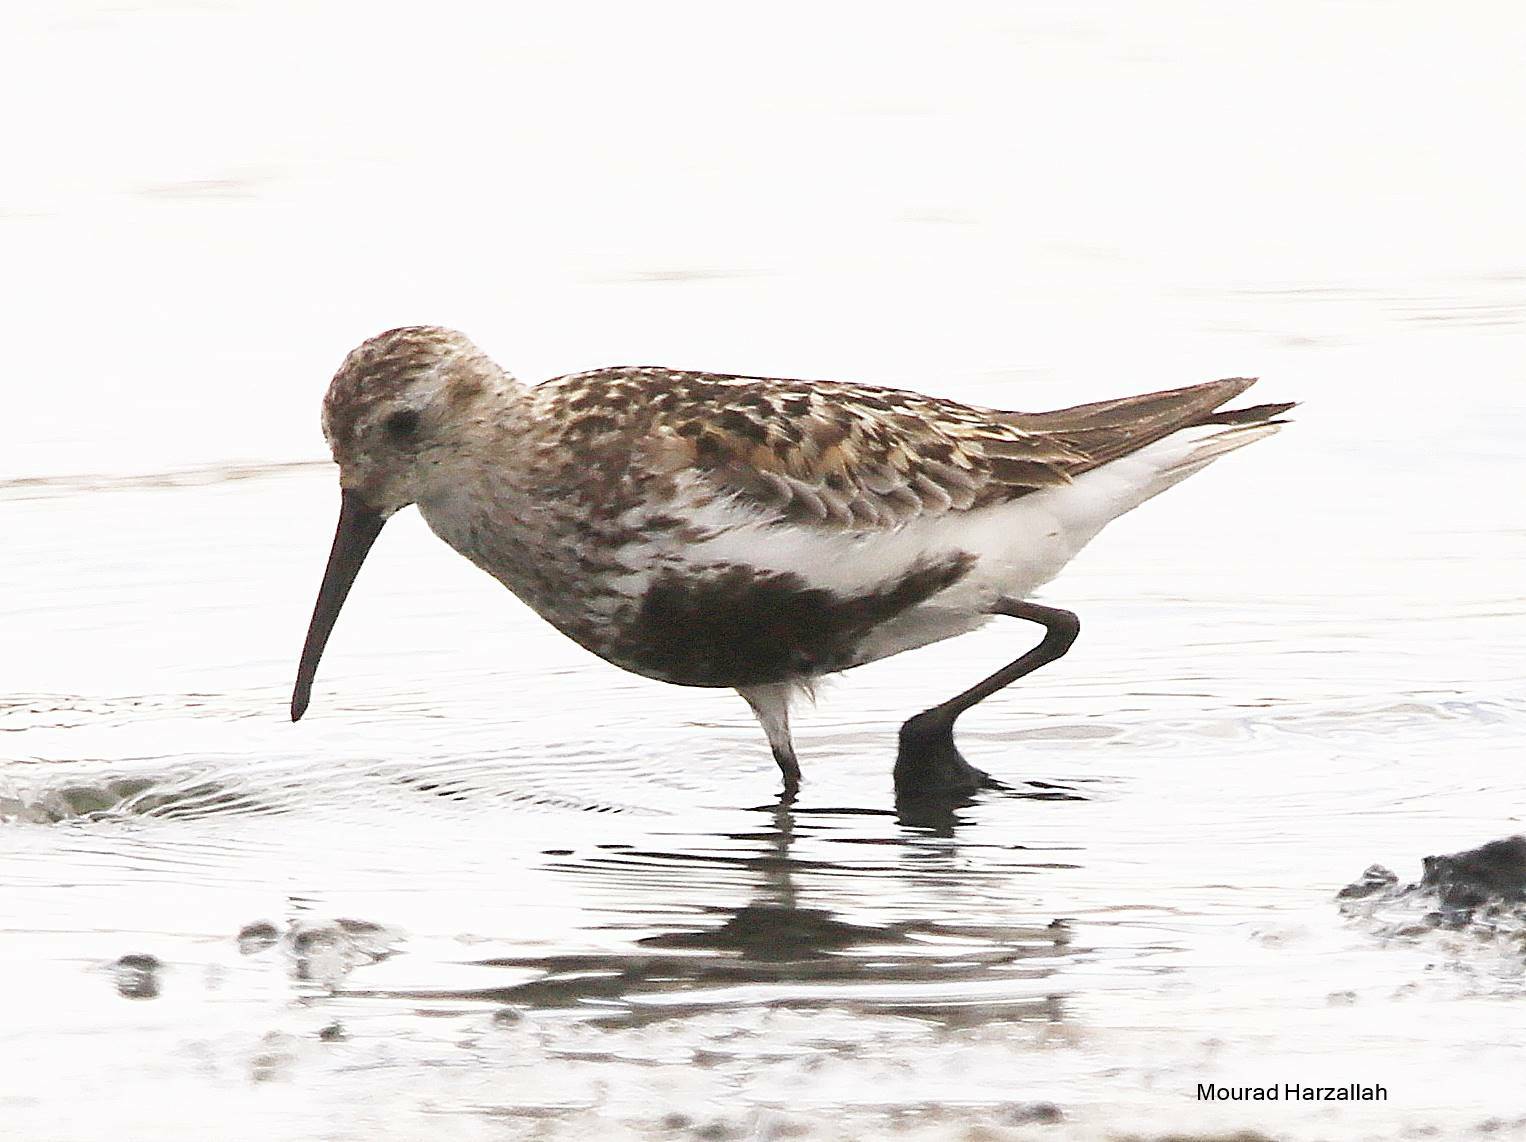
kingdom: Animalia
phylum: Chordata
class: Aves
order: Charadriiformes
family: Scolopacidae
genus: Calidris
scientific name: Calidris alpina
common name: Dunlin
